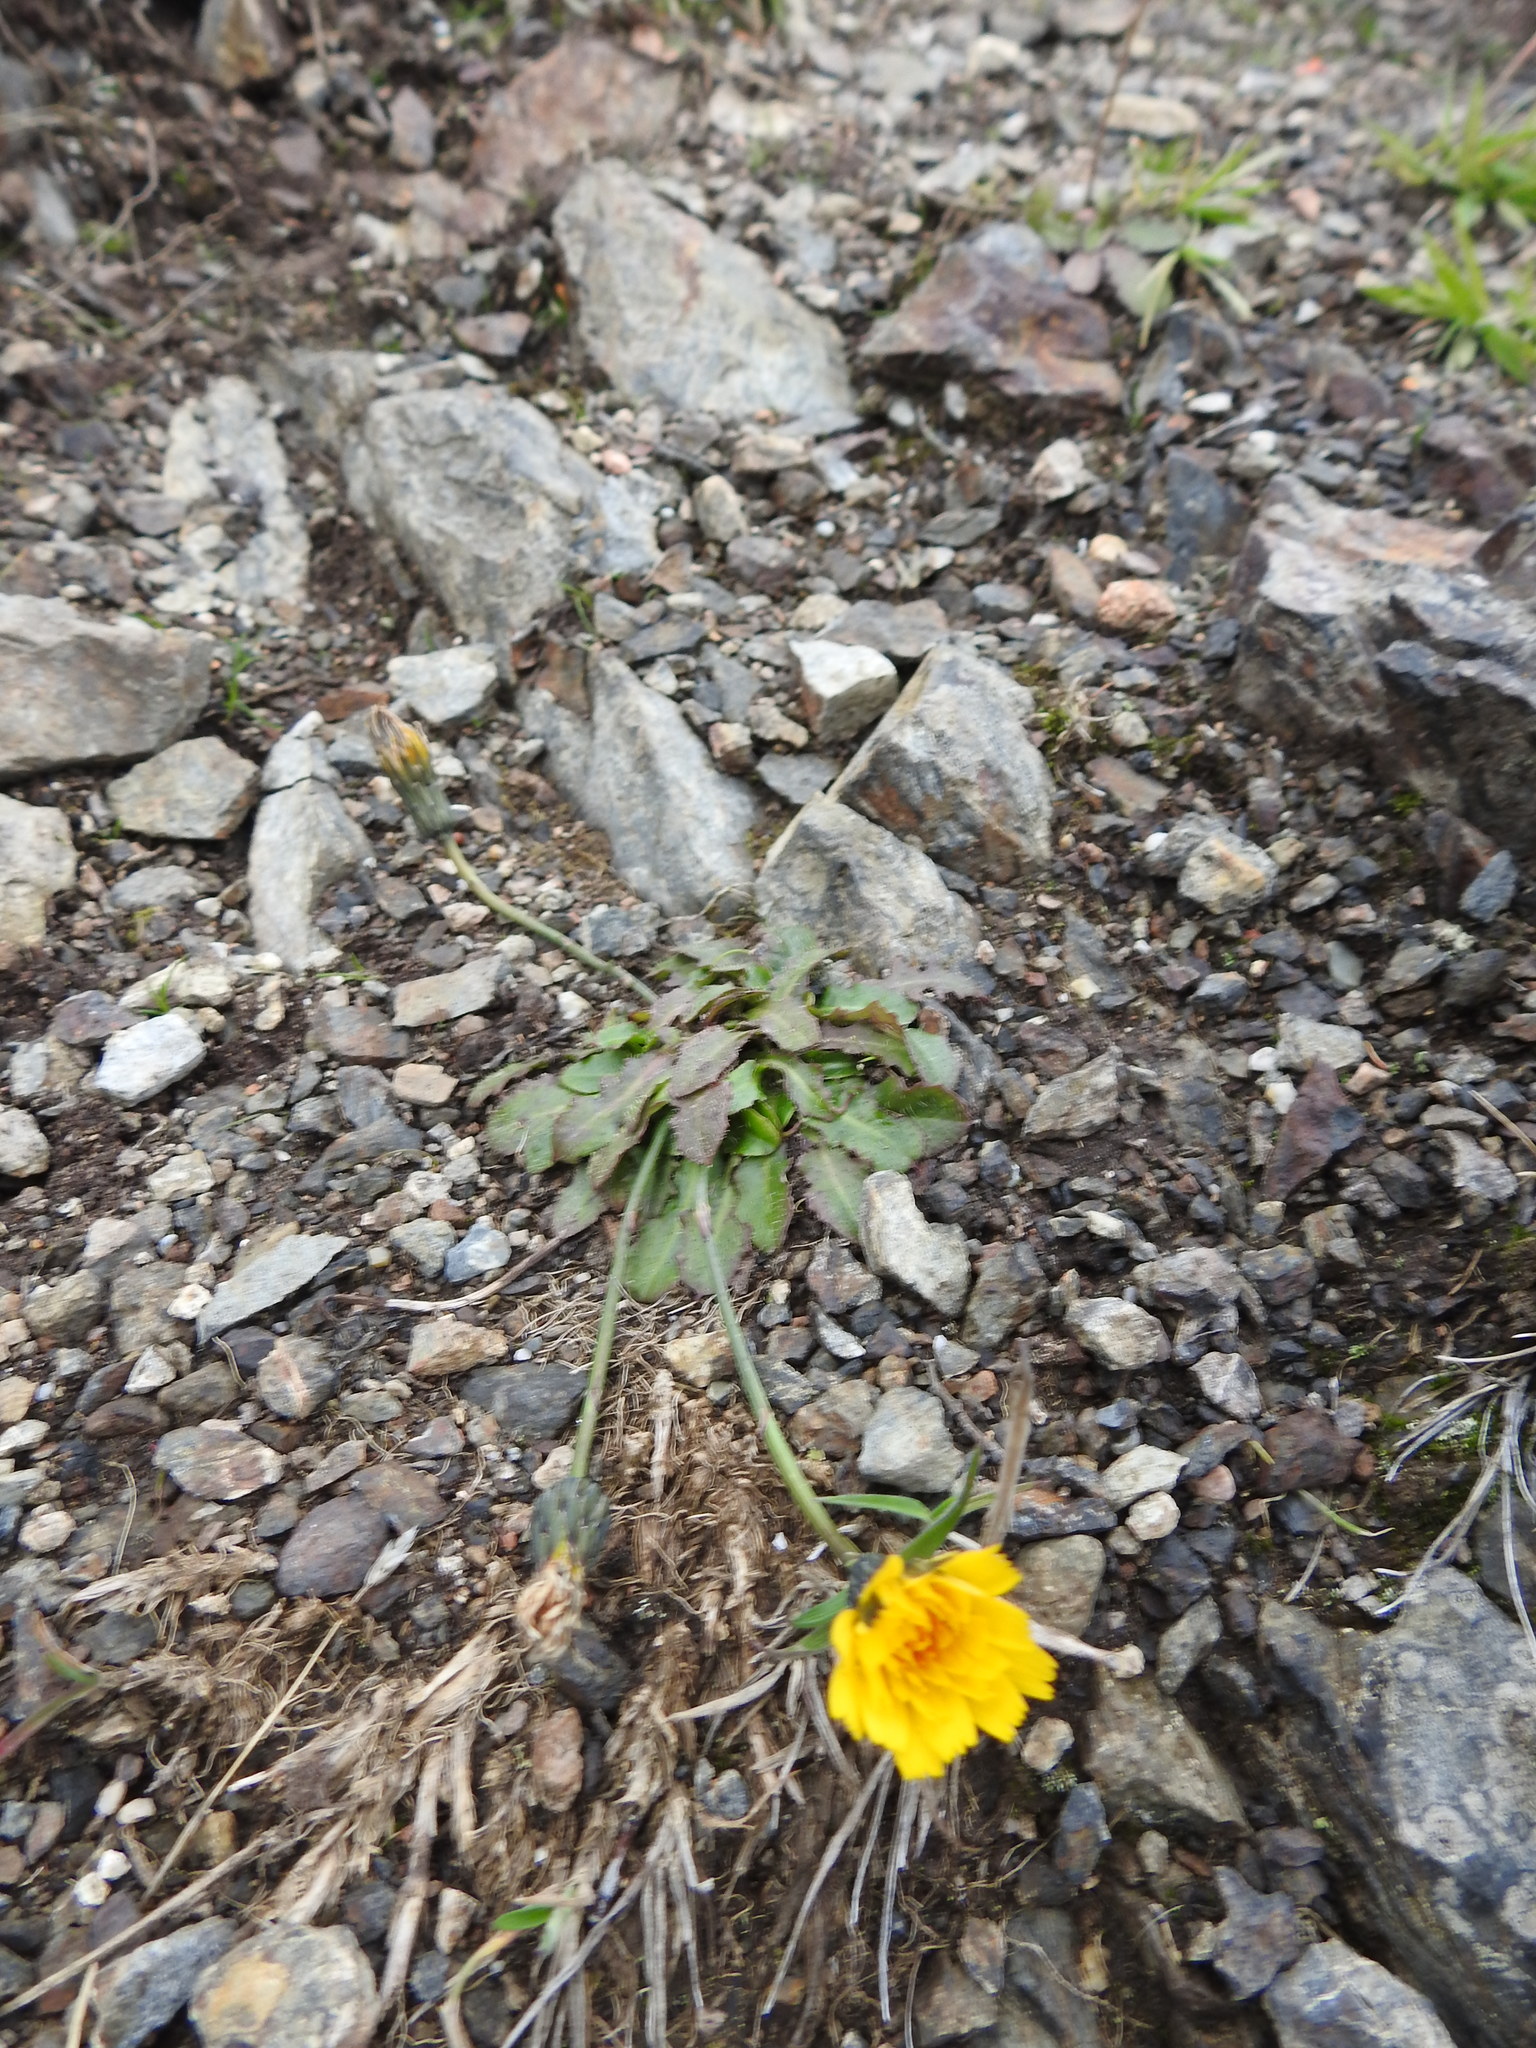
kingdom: Plantae
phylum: Tracheophyta
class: Magnoliopsida
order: Asterales
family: Asteraceae
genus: Hypochaeris
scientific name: Hypochaeris radicata
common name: Flatweed
